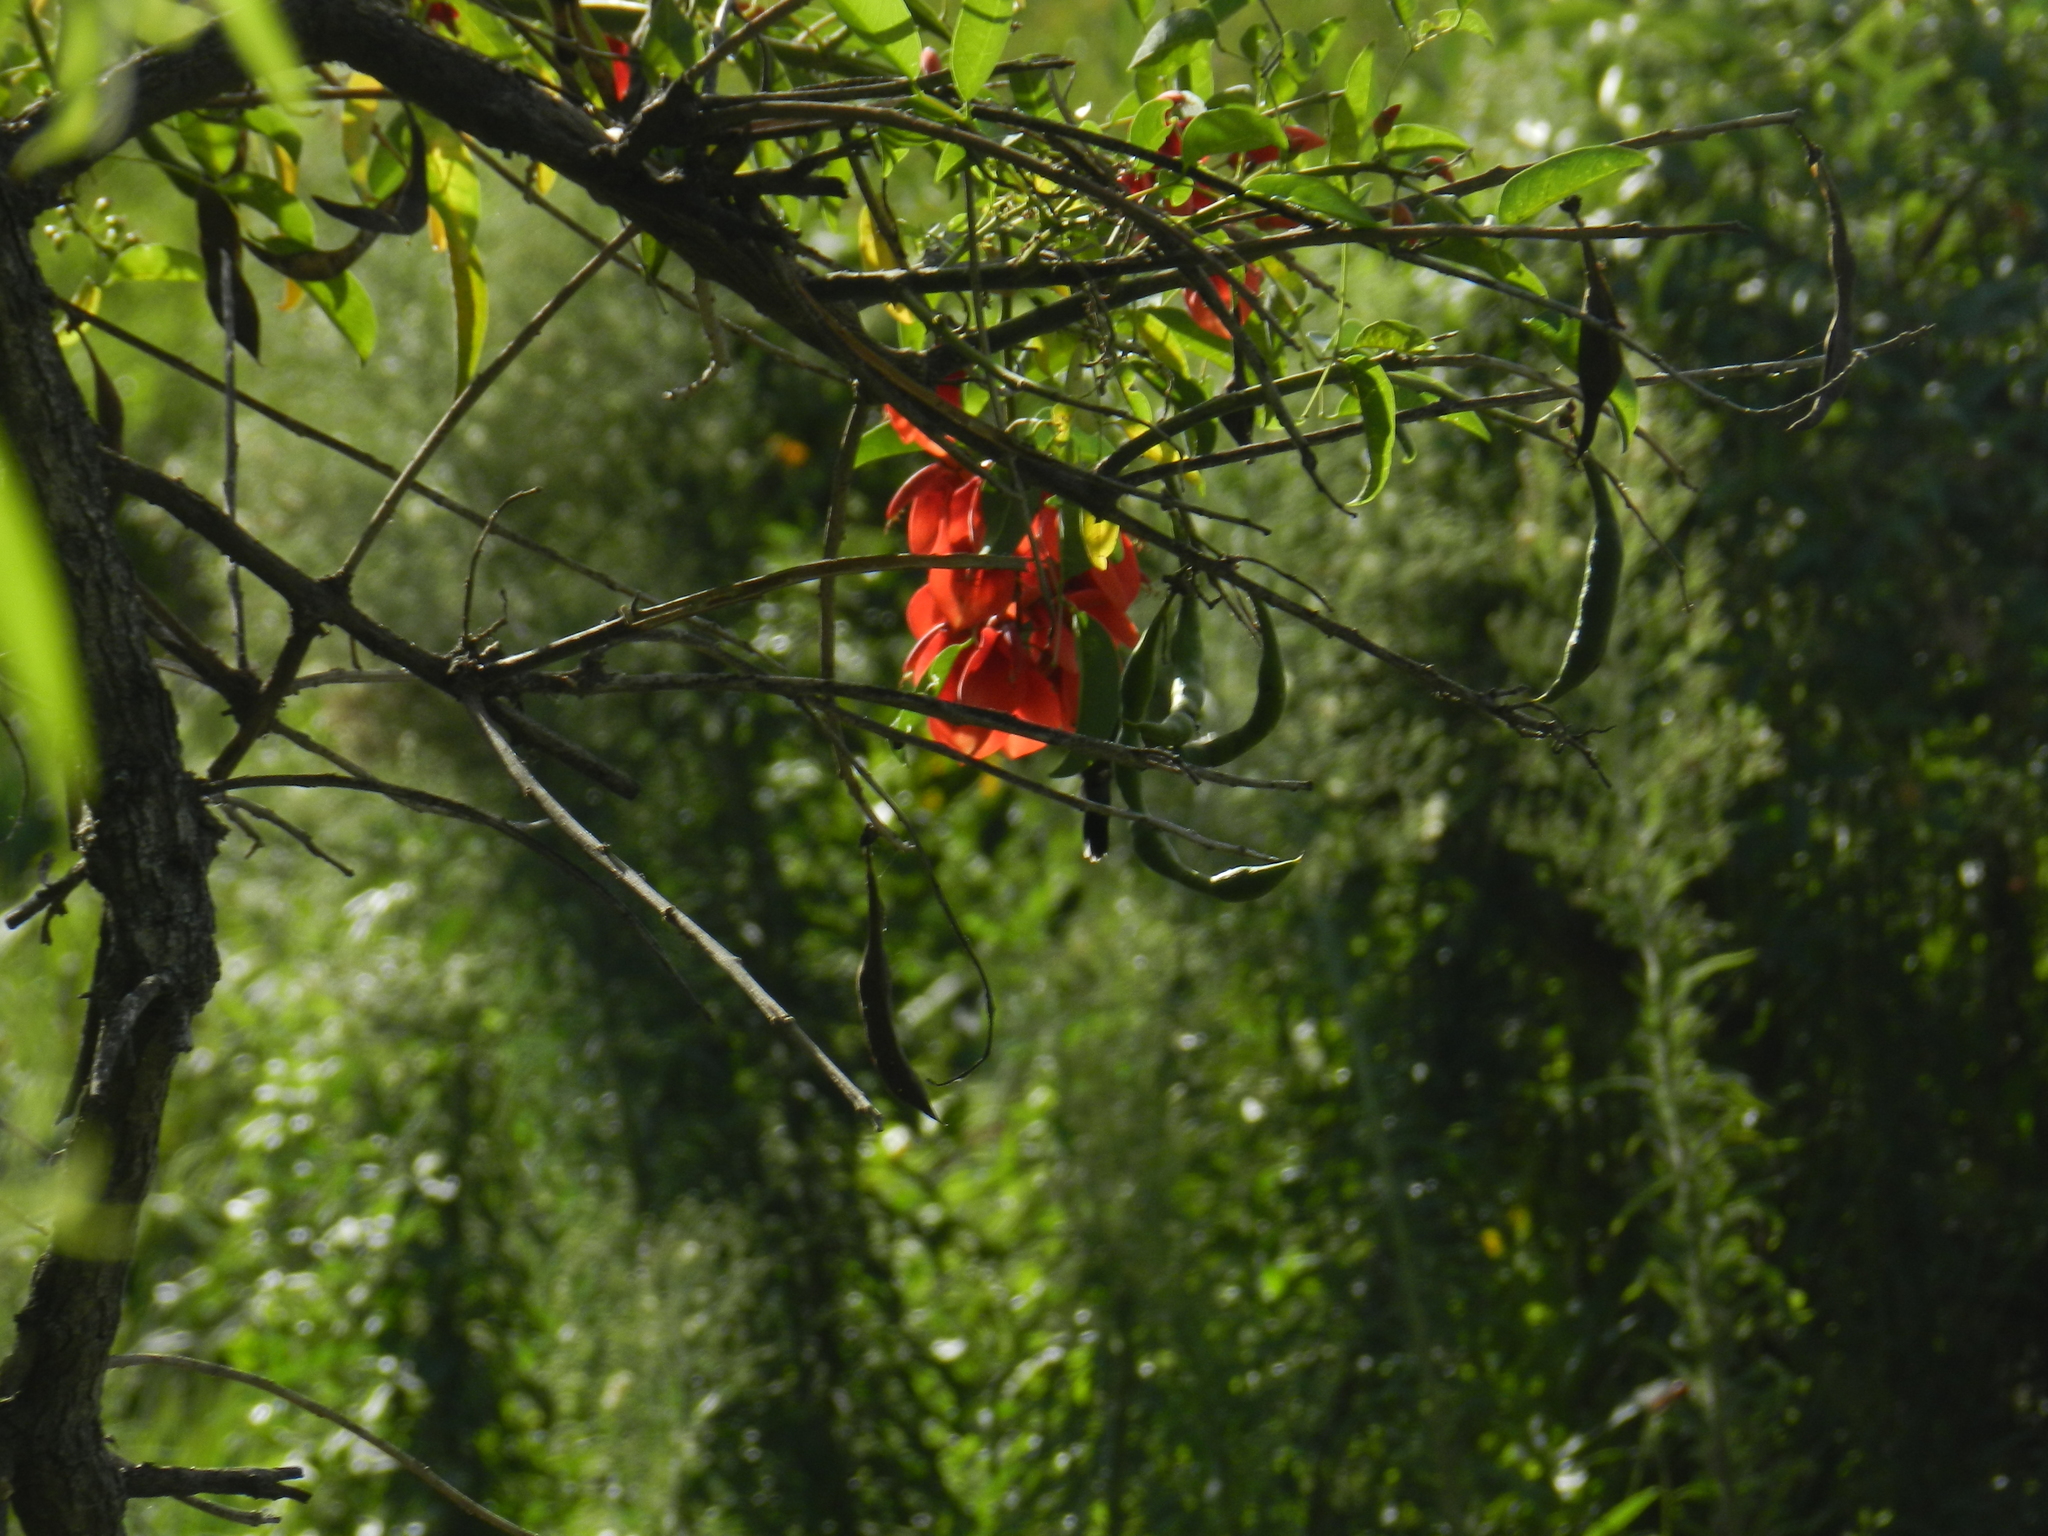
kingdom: Plantae
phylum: Tracheophyta
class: Magnoliopsida
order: Fabales
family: Fabaceae
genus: Erythrina
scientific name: Erythrina crista-galli
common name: Cockspur coral tree
